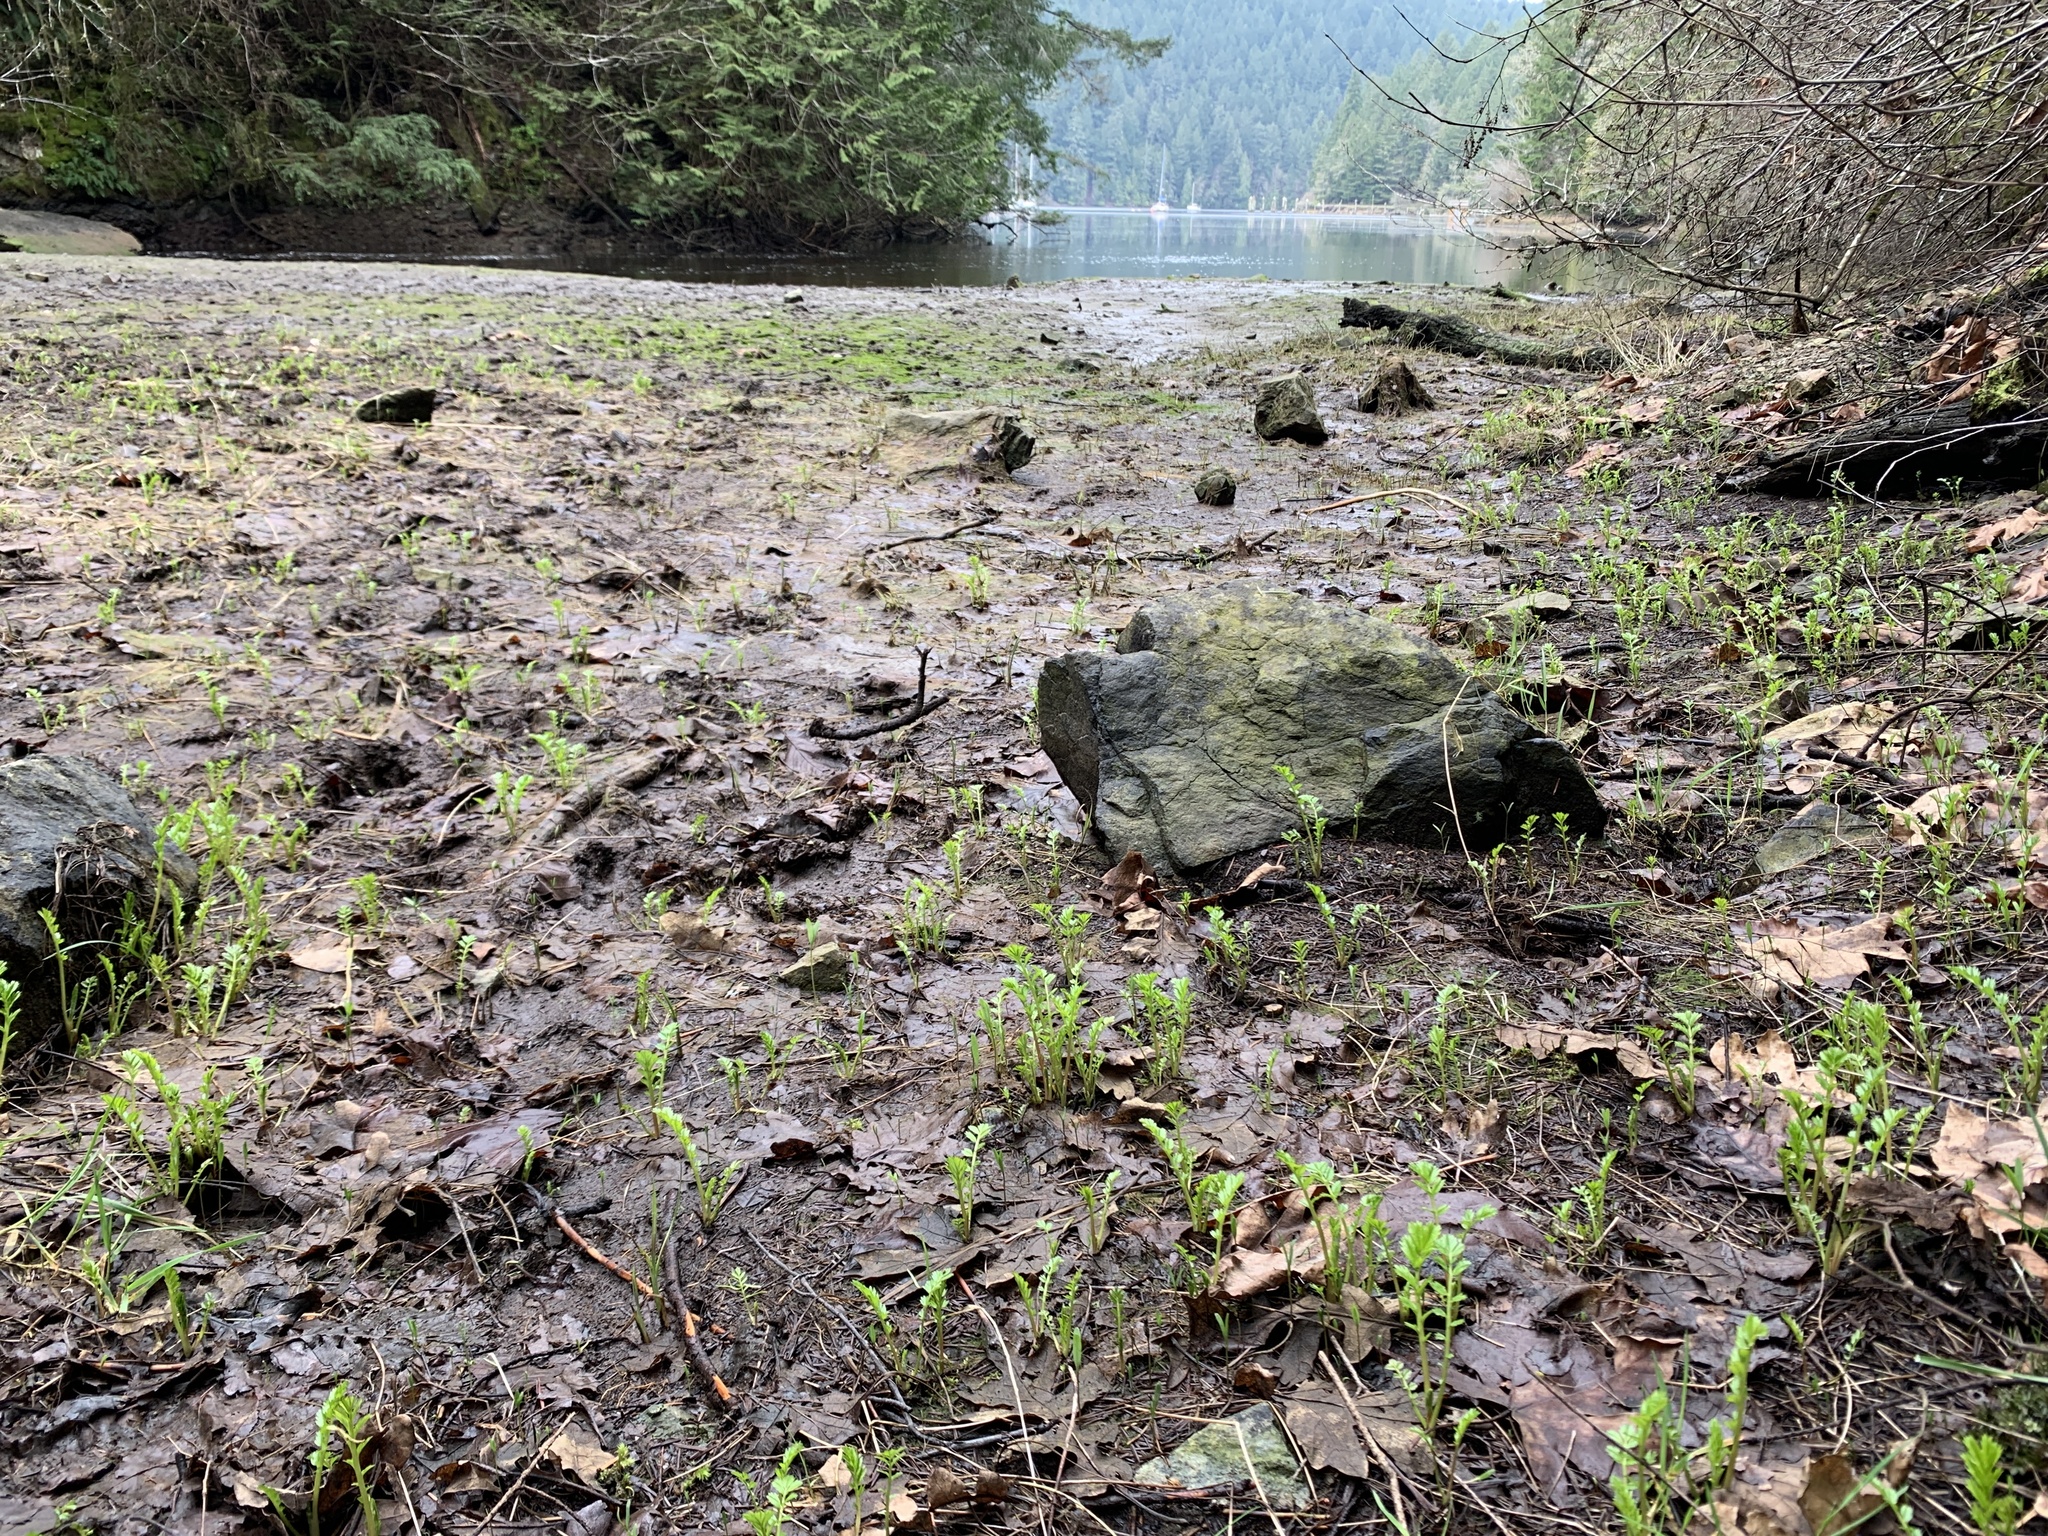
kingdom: Plantae
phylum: Tracheophyta
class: Magnoliopsida
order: Rosales
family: Rosaceae
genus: Argentina
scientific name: Argentina anserina
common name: Common silverweed
